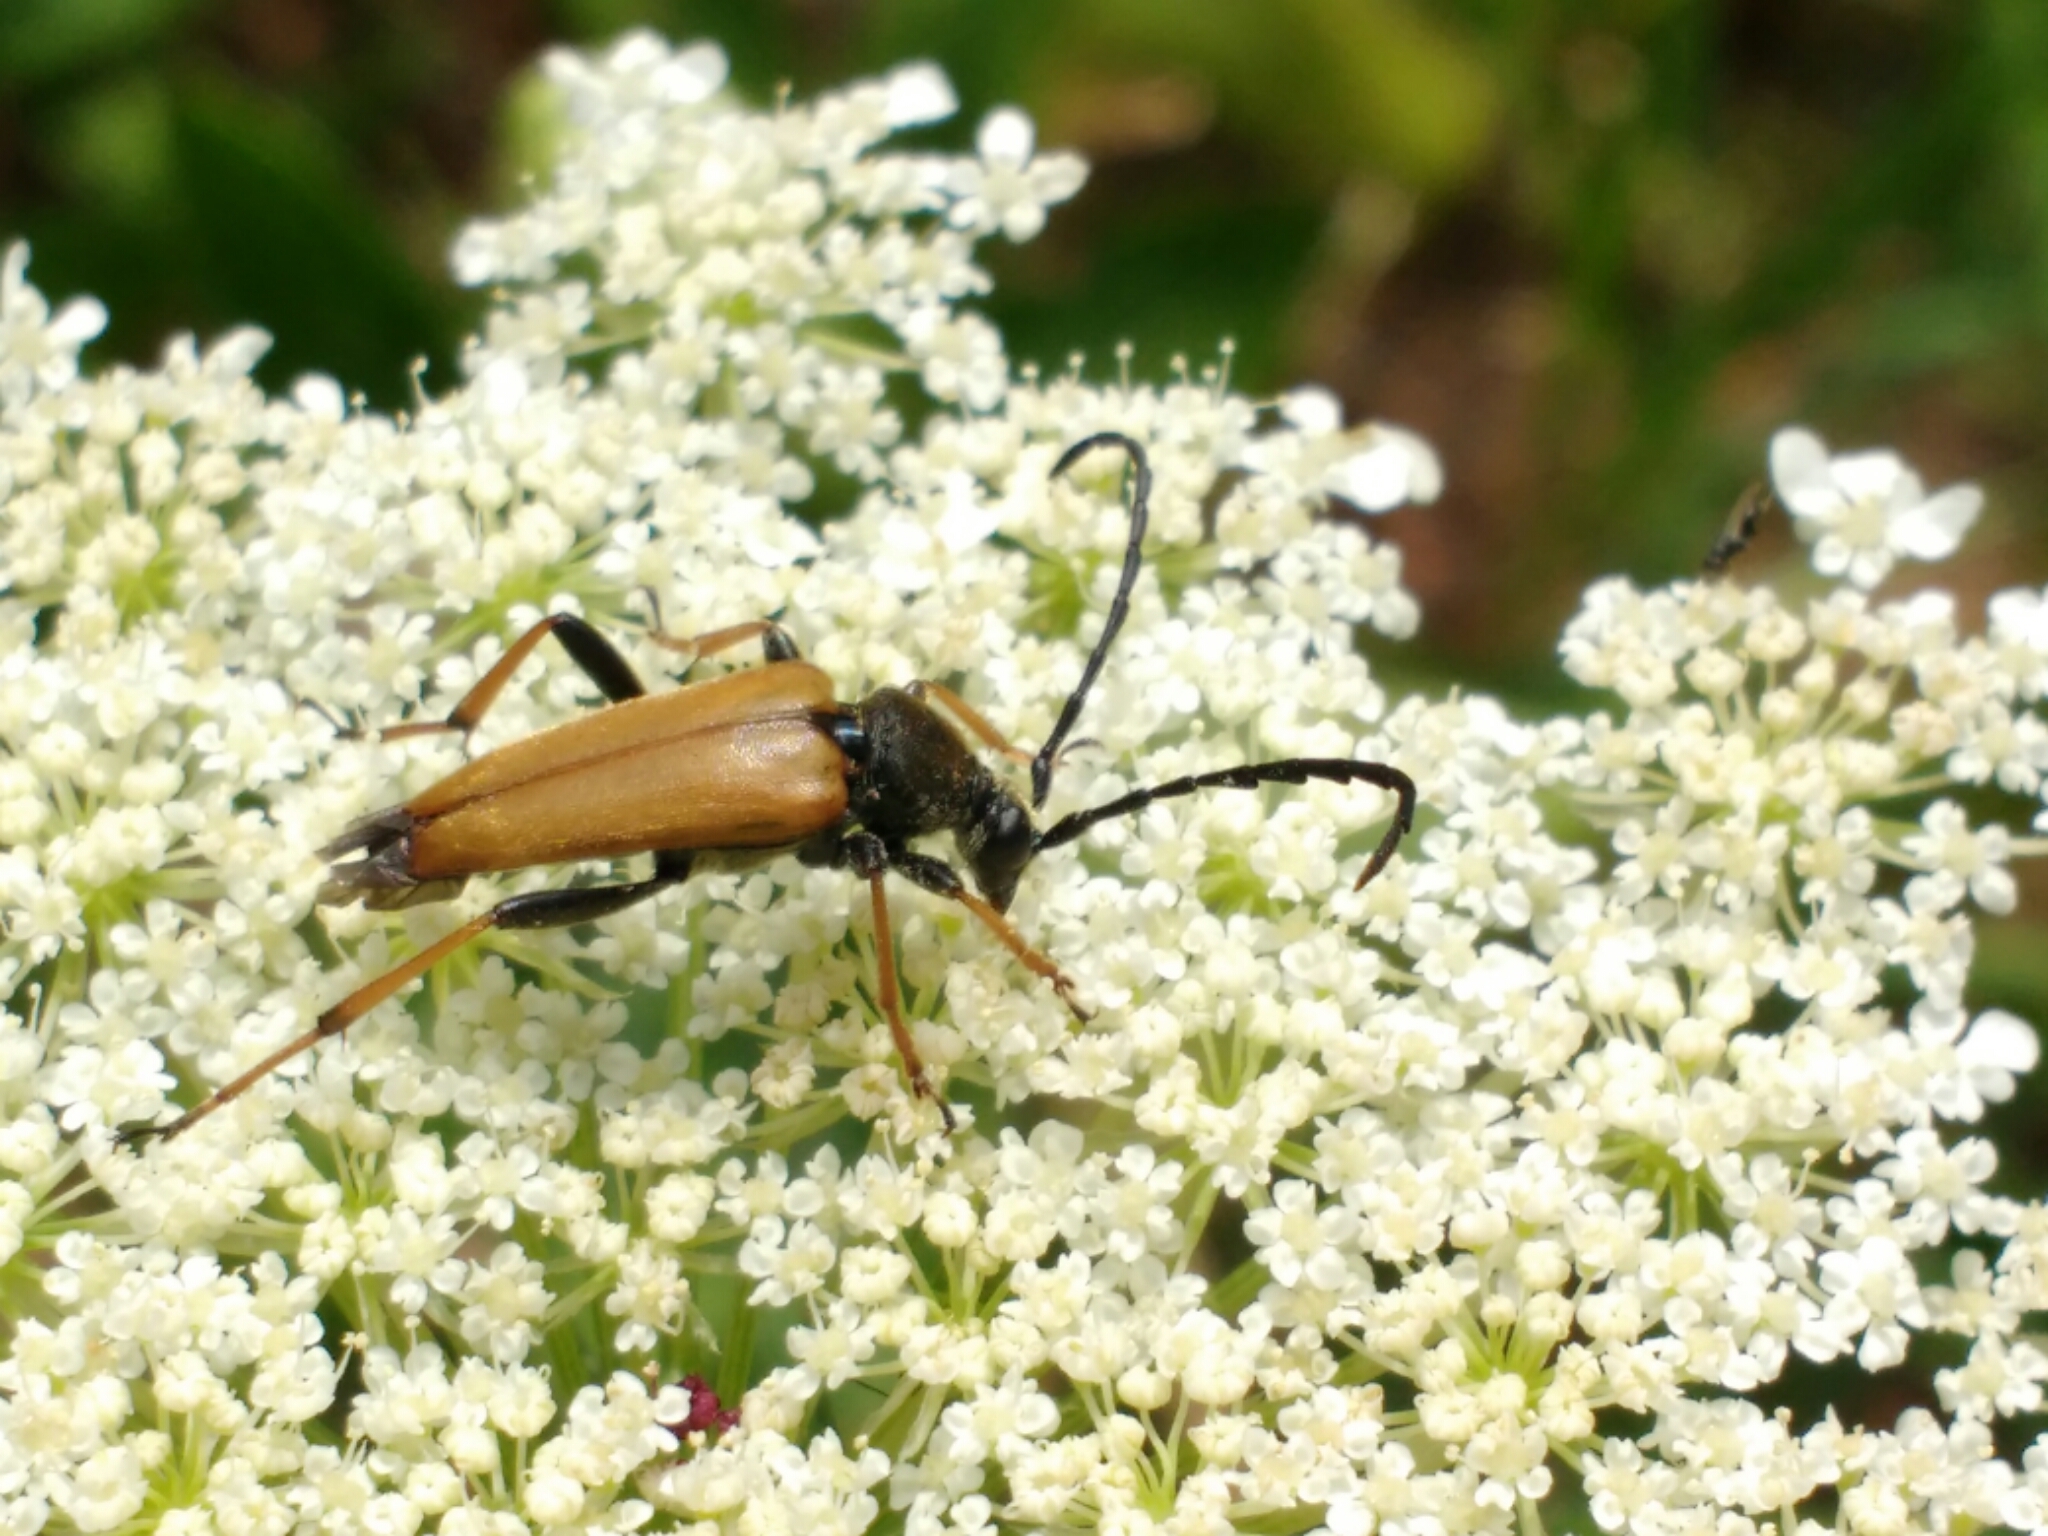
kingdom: Animalia
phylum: Arthropoda
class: Insecta
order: Coleoptera
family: Cerambycidae
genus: Stictoleptura
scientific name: Stictoleptura rubra
